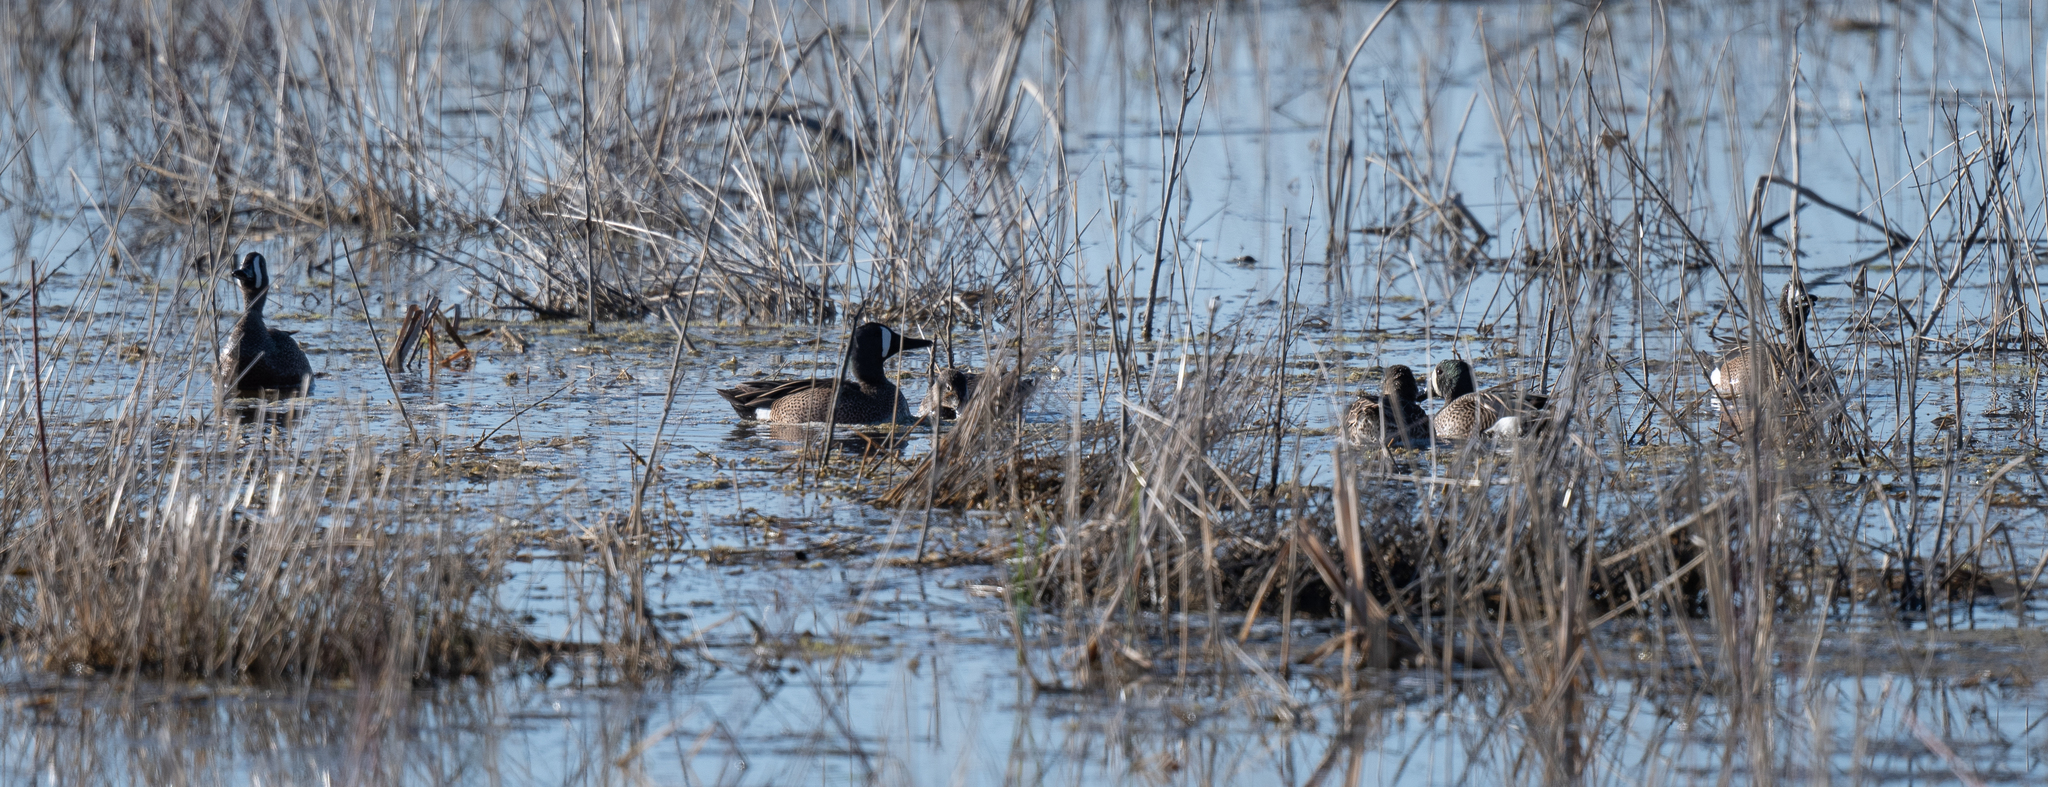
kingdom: Animalia
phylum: Chordata
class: Aves
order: Anseriformes
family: Anatidae
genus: Spatula
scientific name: Spatula discors
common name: Blue-winged teal
